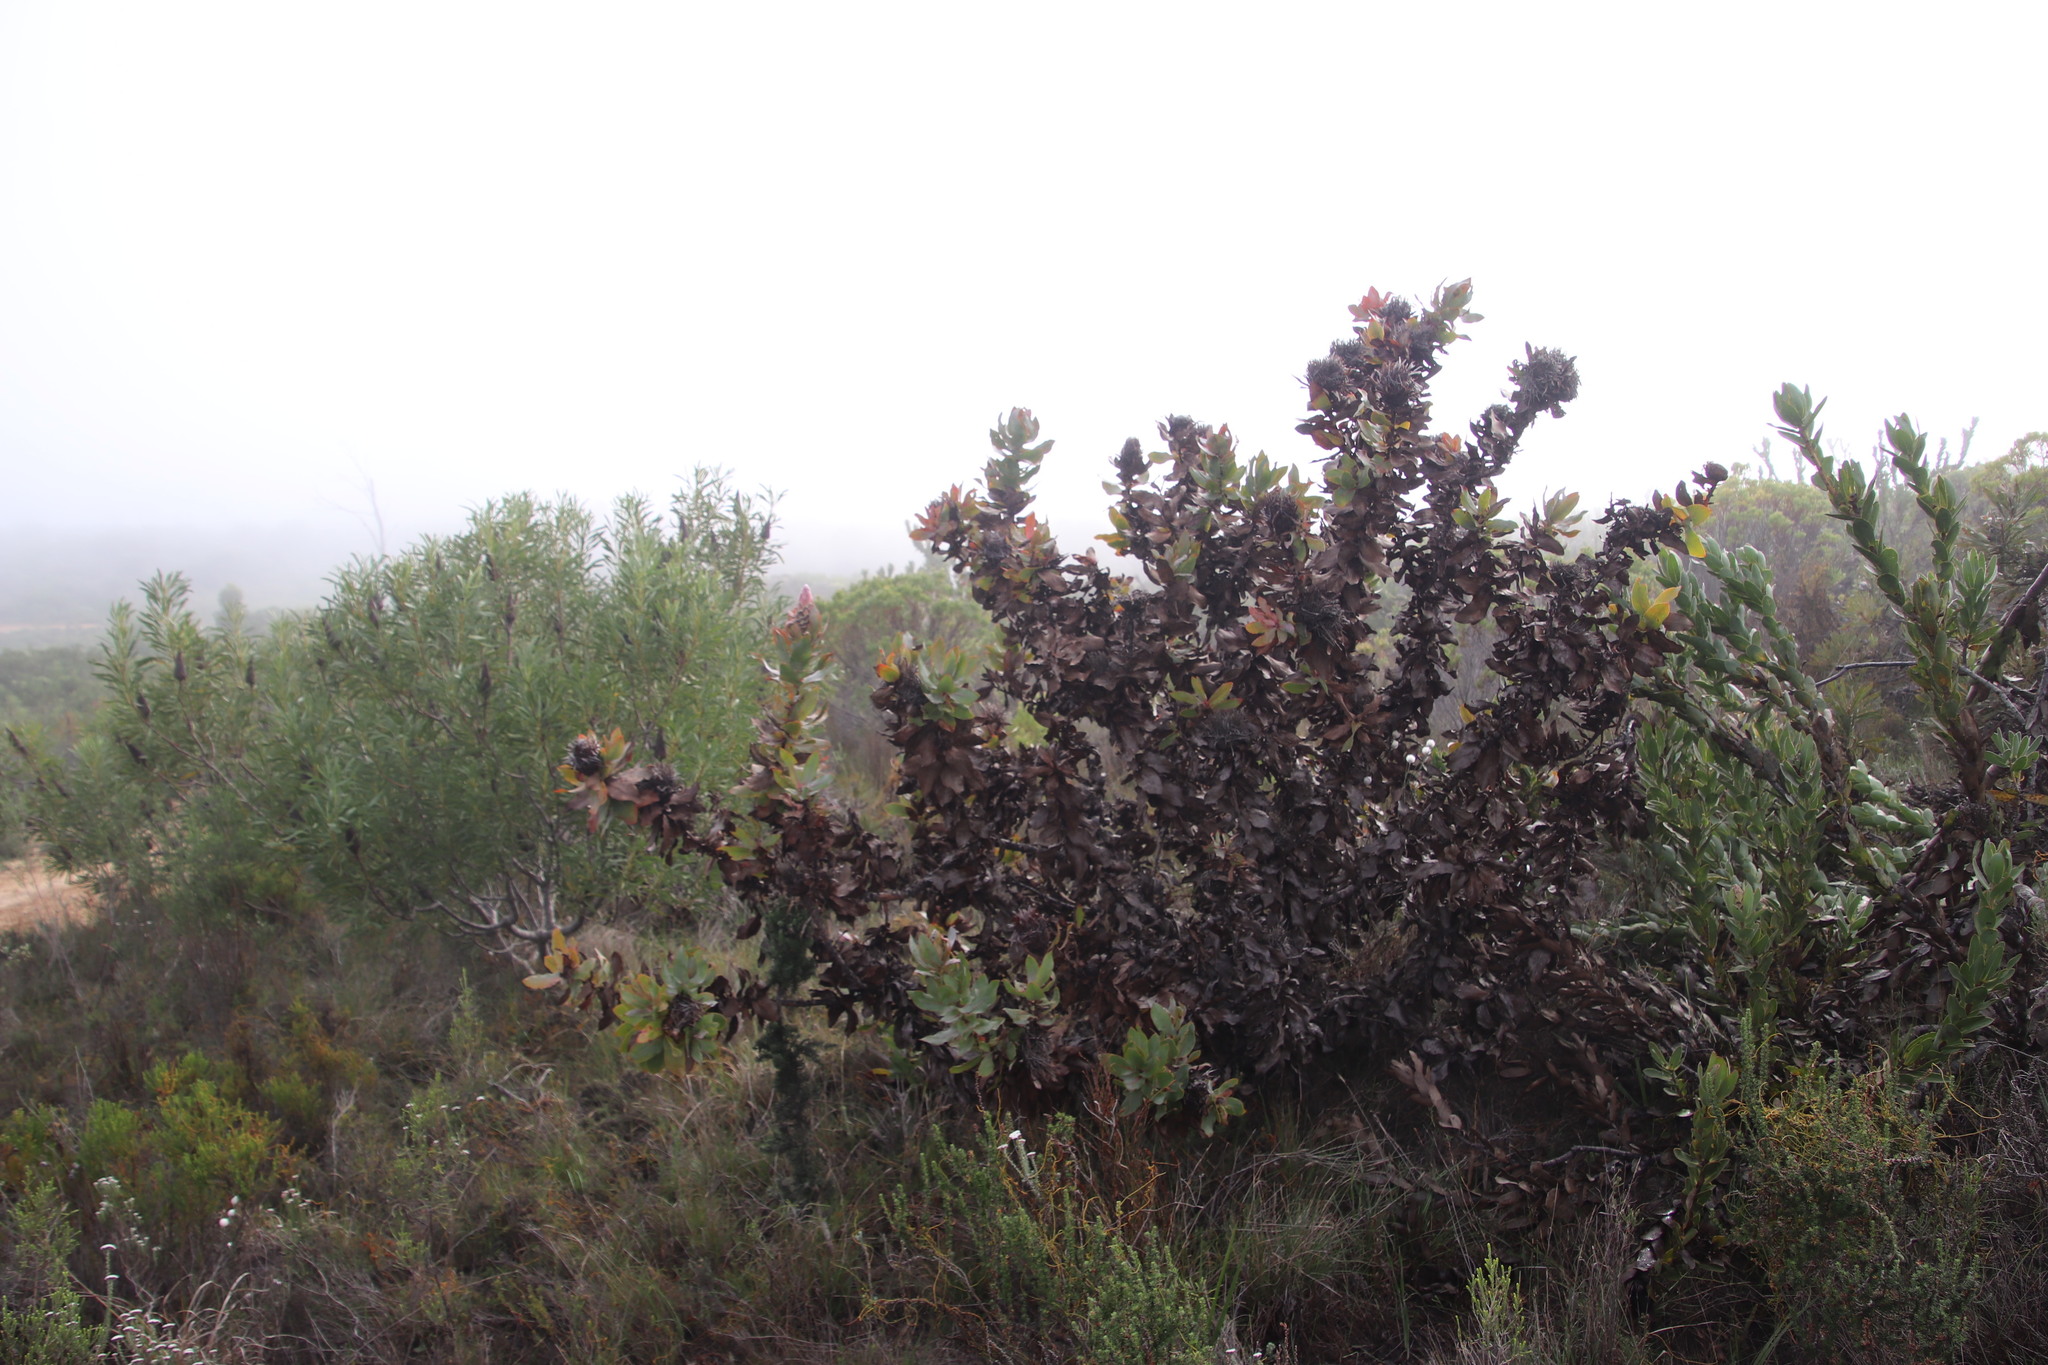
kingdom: Plantae
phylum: Tracheophyta
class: Magnoliopsida
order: Proteales
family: Proteaceae
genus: Protea
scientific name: Protea eximia
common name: Broad-leaved sugarbush
